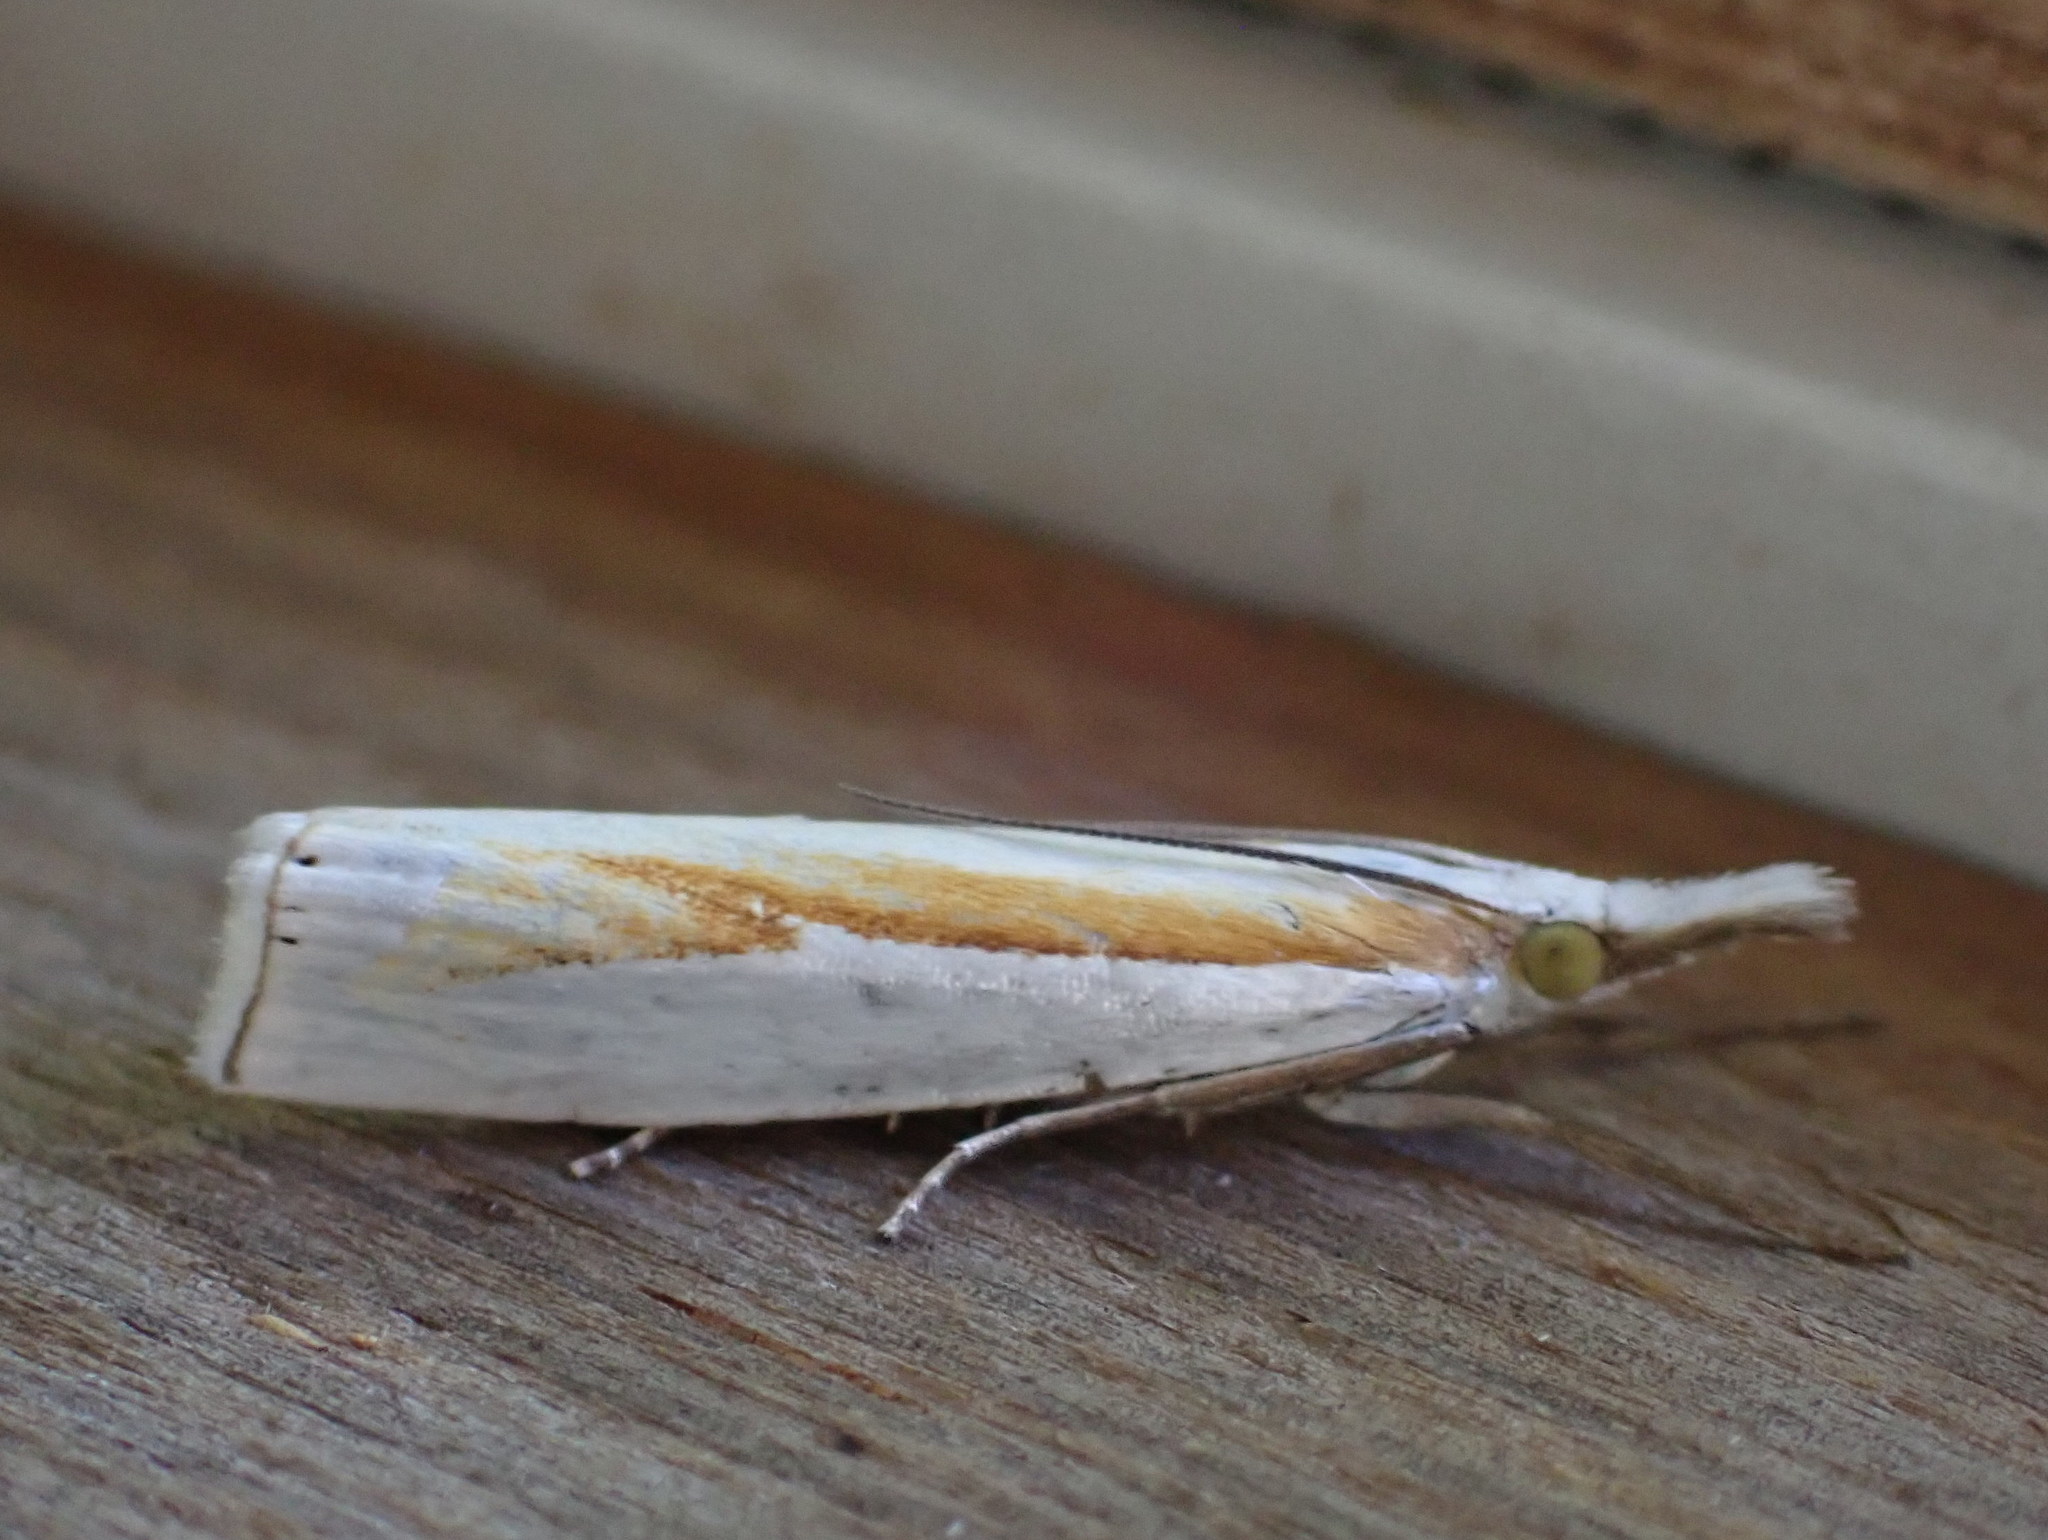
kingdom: Animalia
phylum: Arthropoda
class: Insecta
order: Lepidoptera
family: Crambidae
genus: Crambus
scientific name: Crambus girardellus
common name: Girard's grass-veneer
